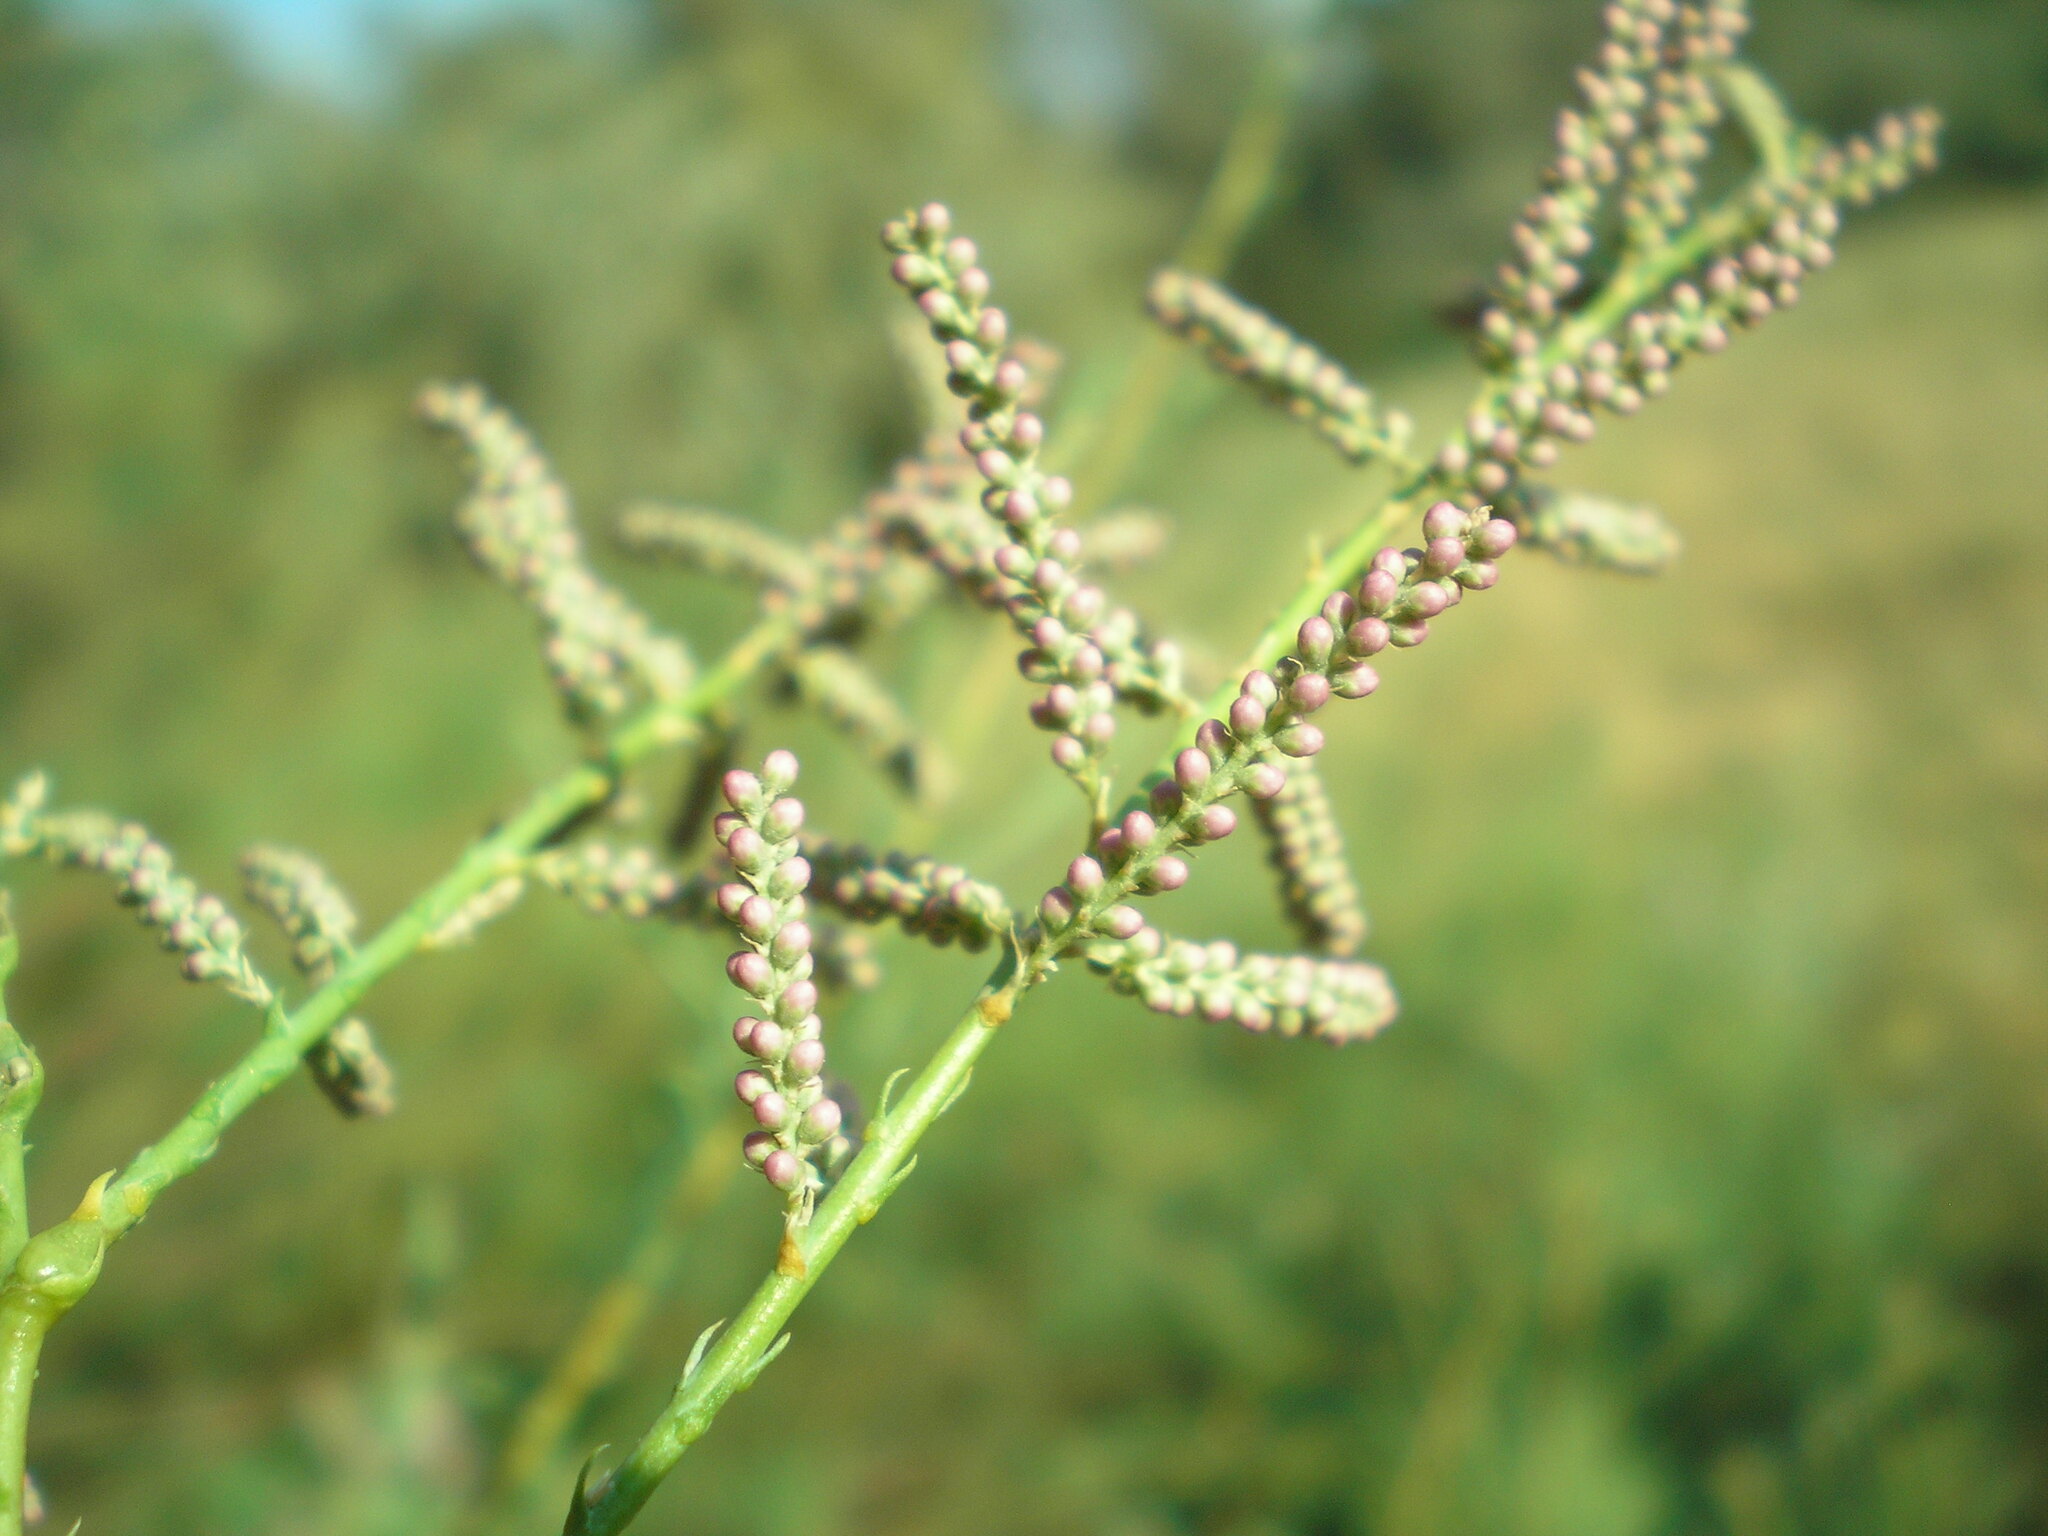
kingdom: Plantae
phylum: Tracheophyta
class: Magnoliopsida
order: Caryophyllales
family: Tamaricaceae
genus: Tamarix
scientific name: Tamarix ramosissima
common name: Pink tamarisk
